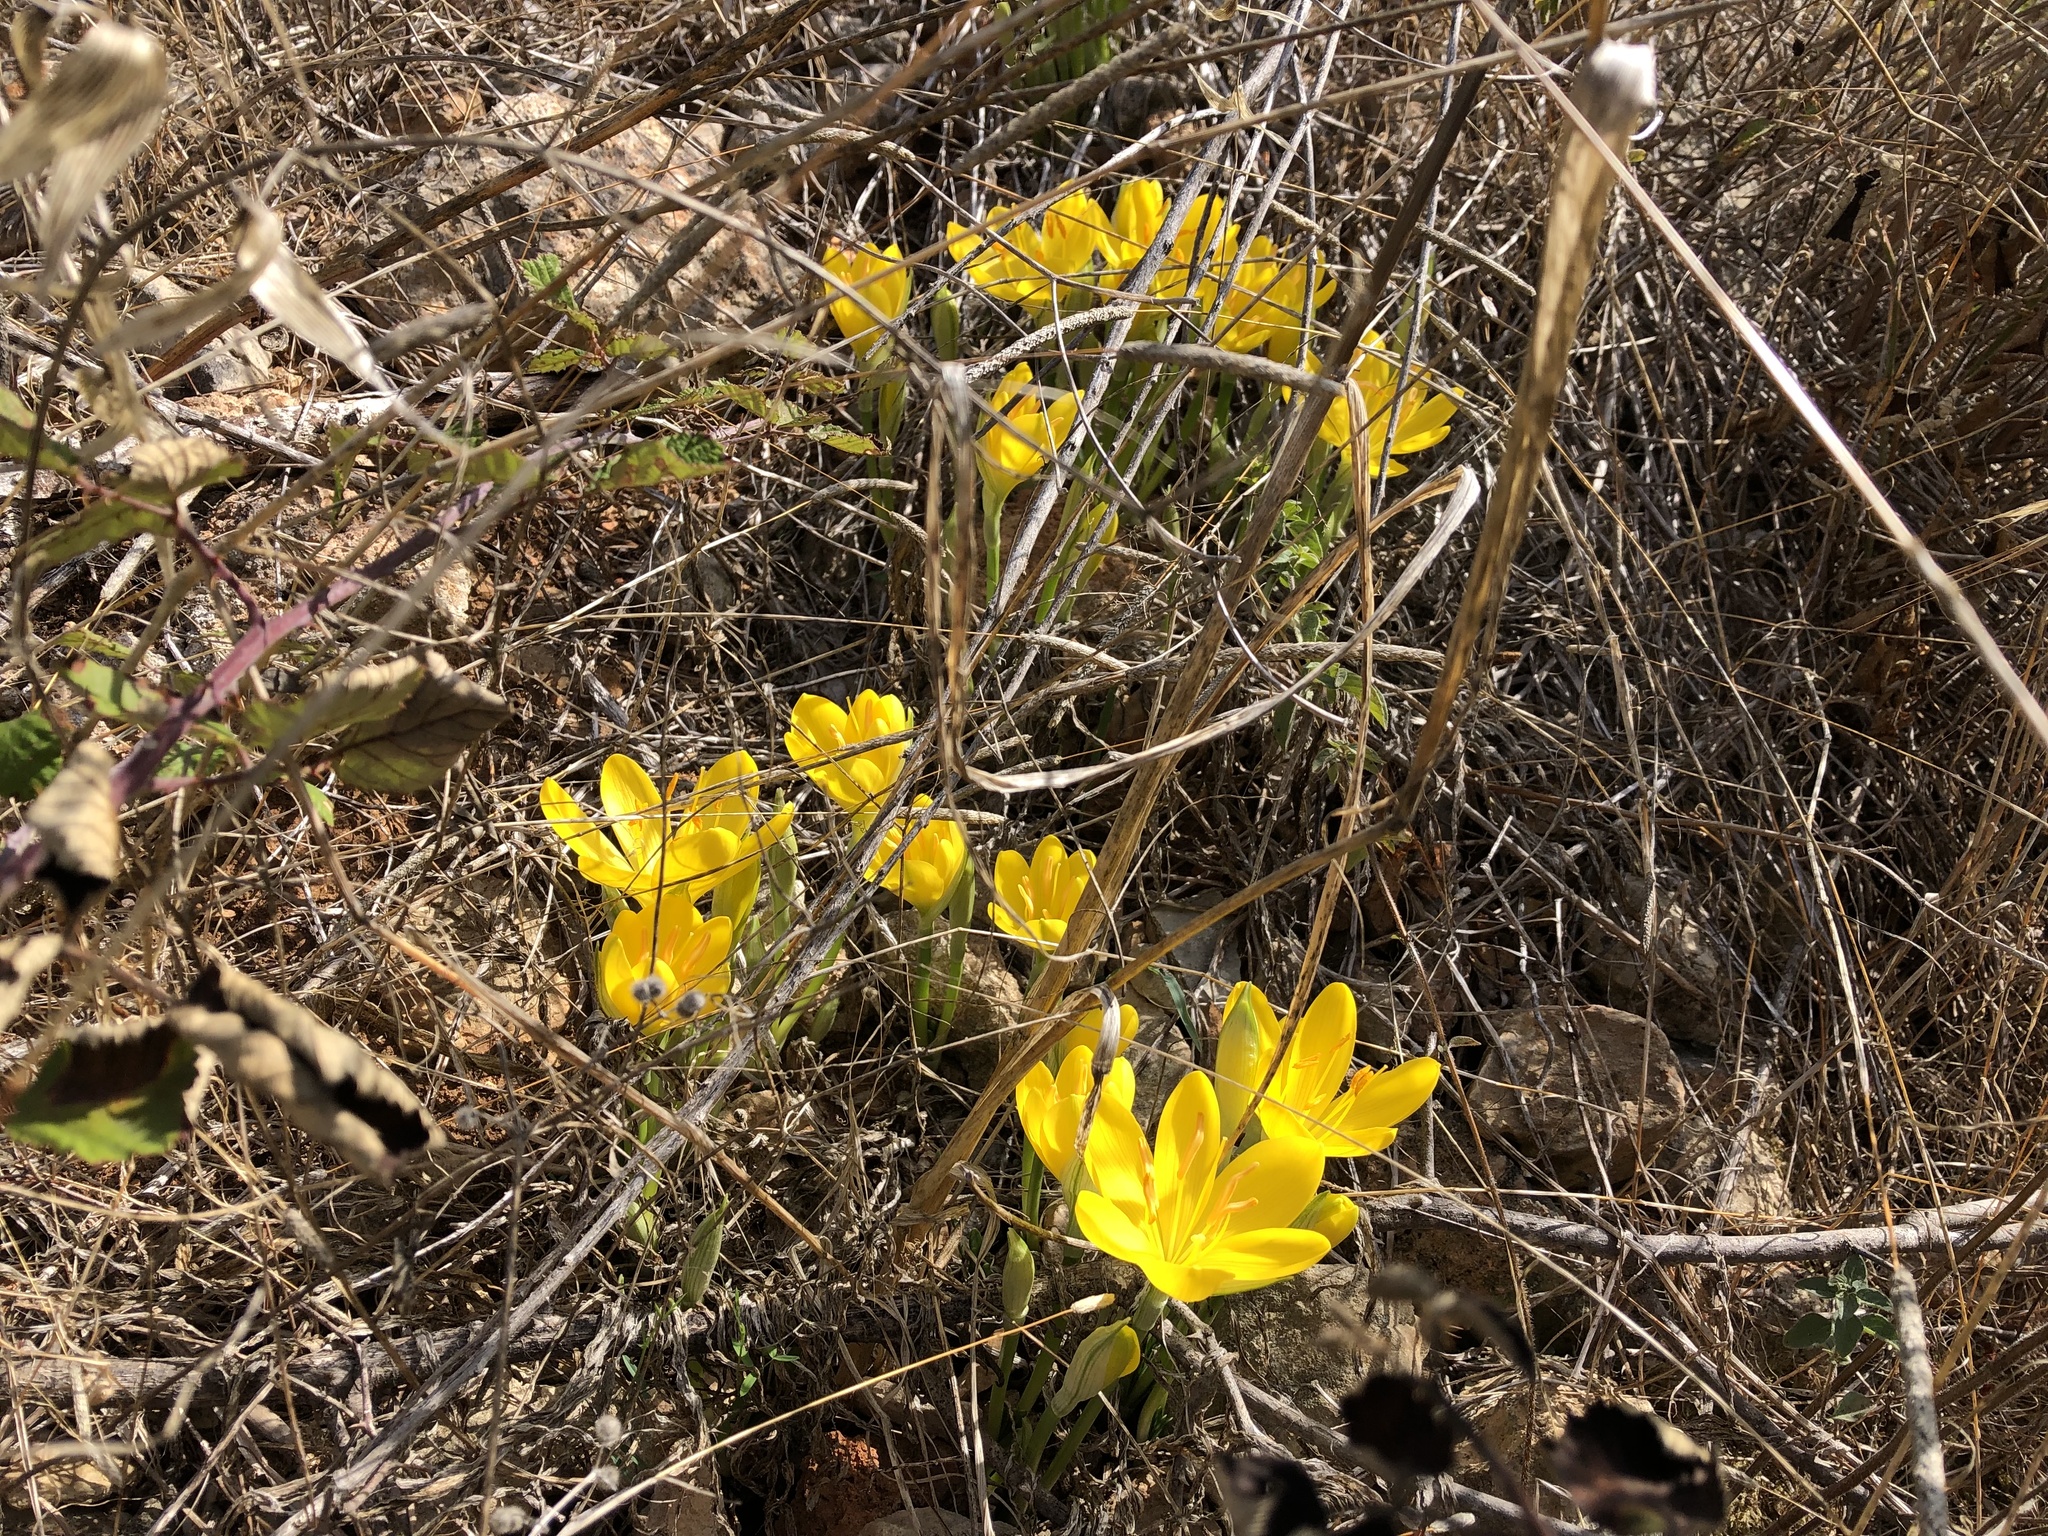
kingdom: Plantae
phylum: Tracheophyta
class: Liliopsida
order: Asparagales
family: Amaryllidaceae
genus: Sternbergia
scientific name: Sternbergia lutea
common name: Winter daffodil
